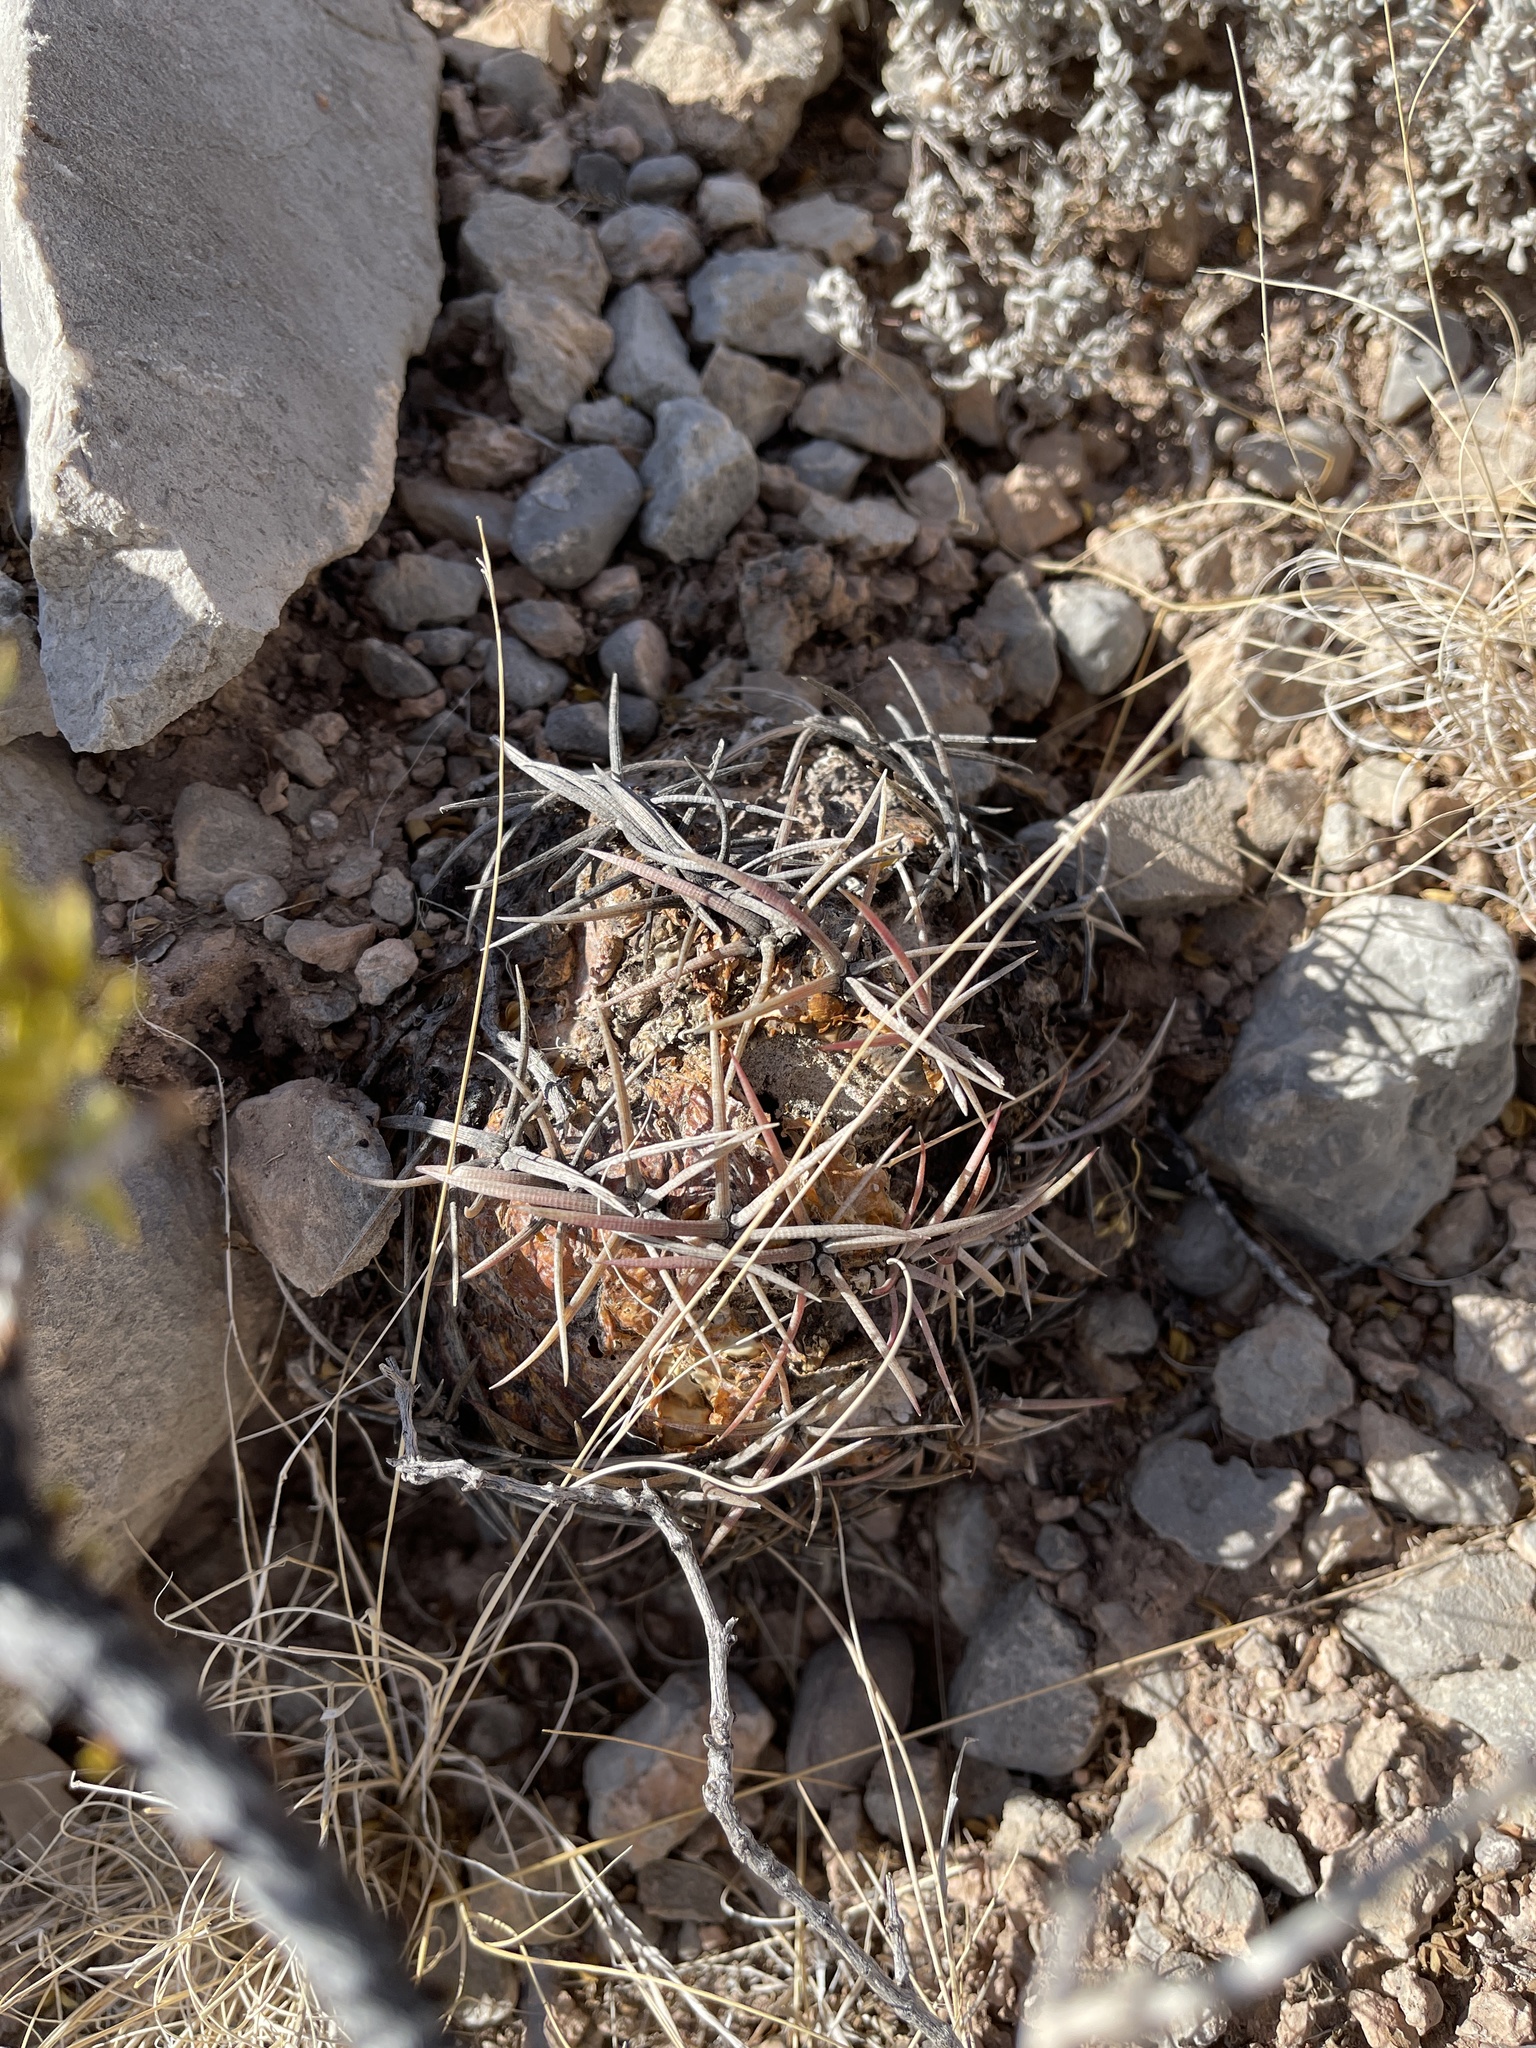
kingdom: Plantae
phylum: Tracheophyta
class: Magnoliopsida
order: Caryophyllales
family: Cactaceae
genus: Echinocactus
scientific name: Echinocactus horizonthalonius
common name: Devilshead
